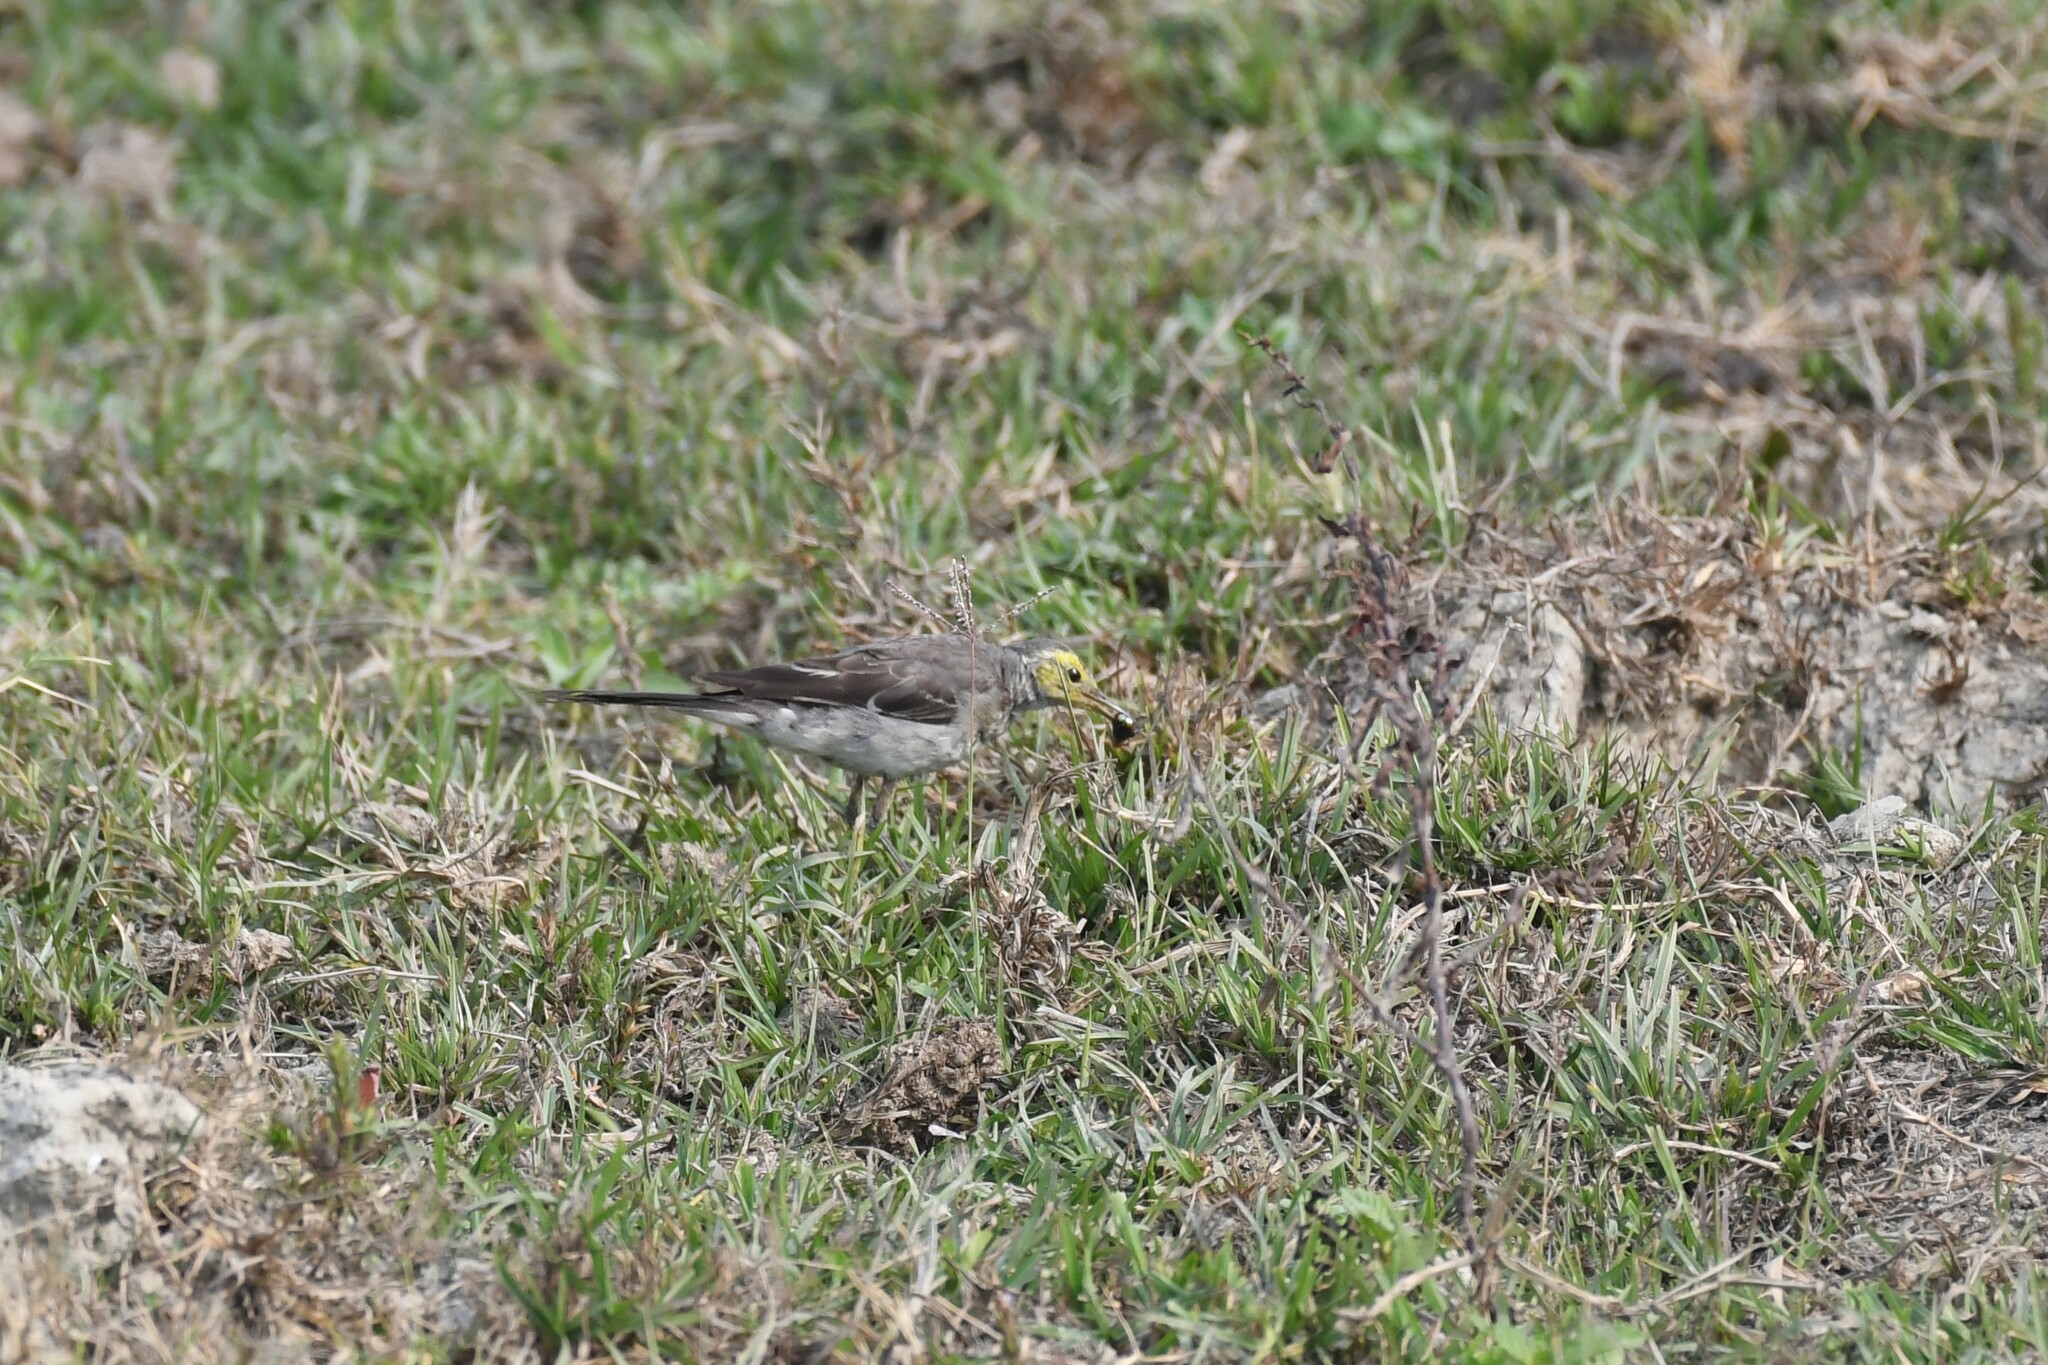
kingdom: Animalia
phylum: Chordata
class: Aves
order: Passeriformes
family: Motacillidae
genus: Motacilla
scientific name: Motacilla citreola
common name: Citrine wagtail
